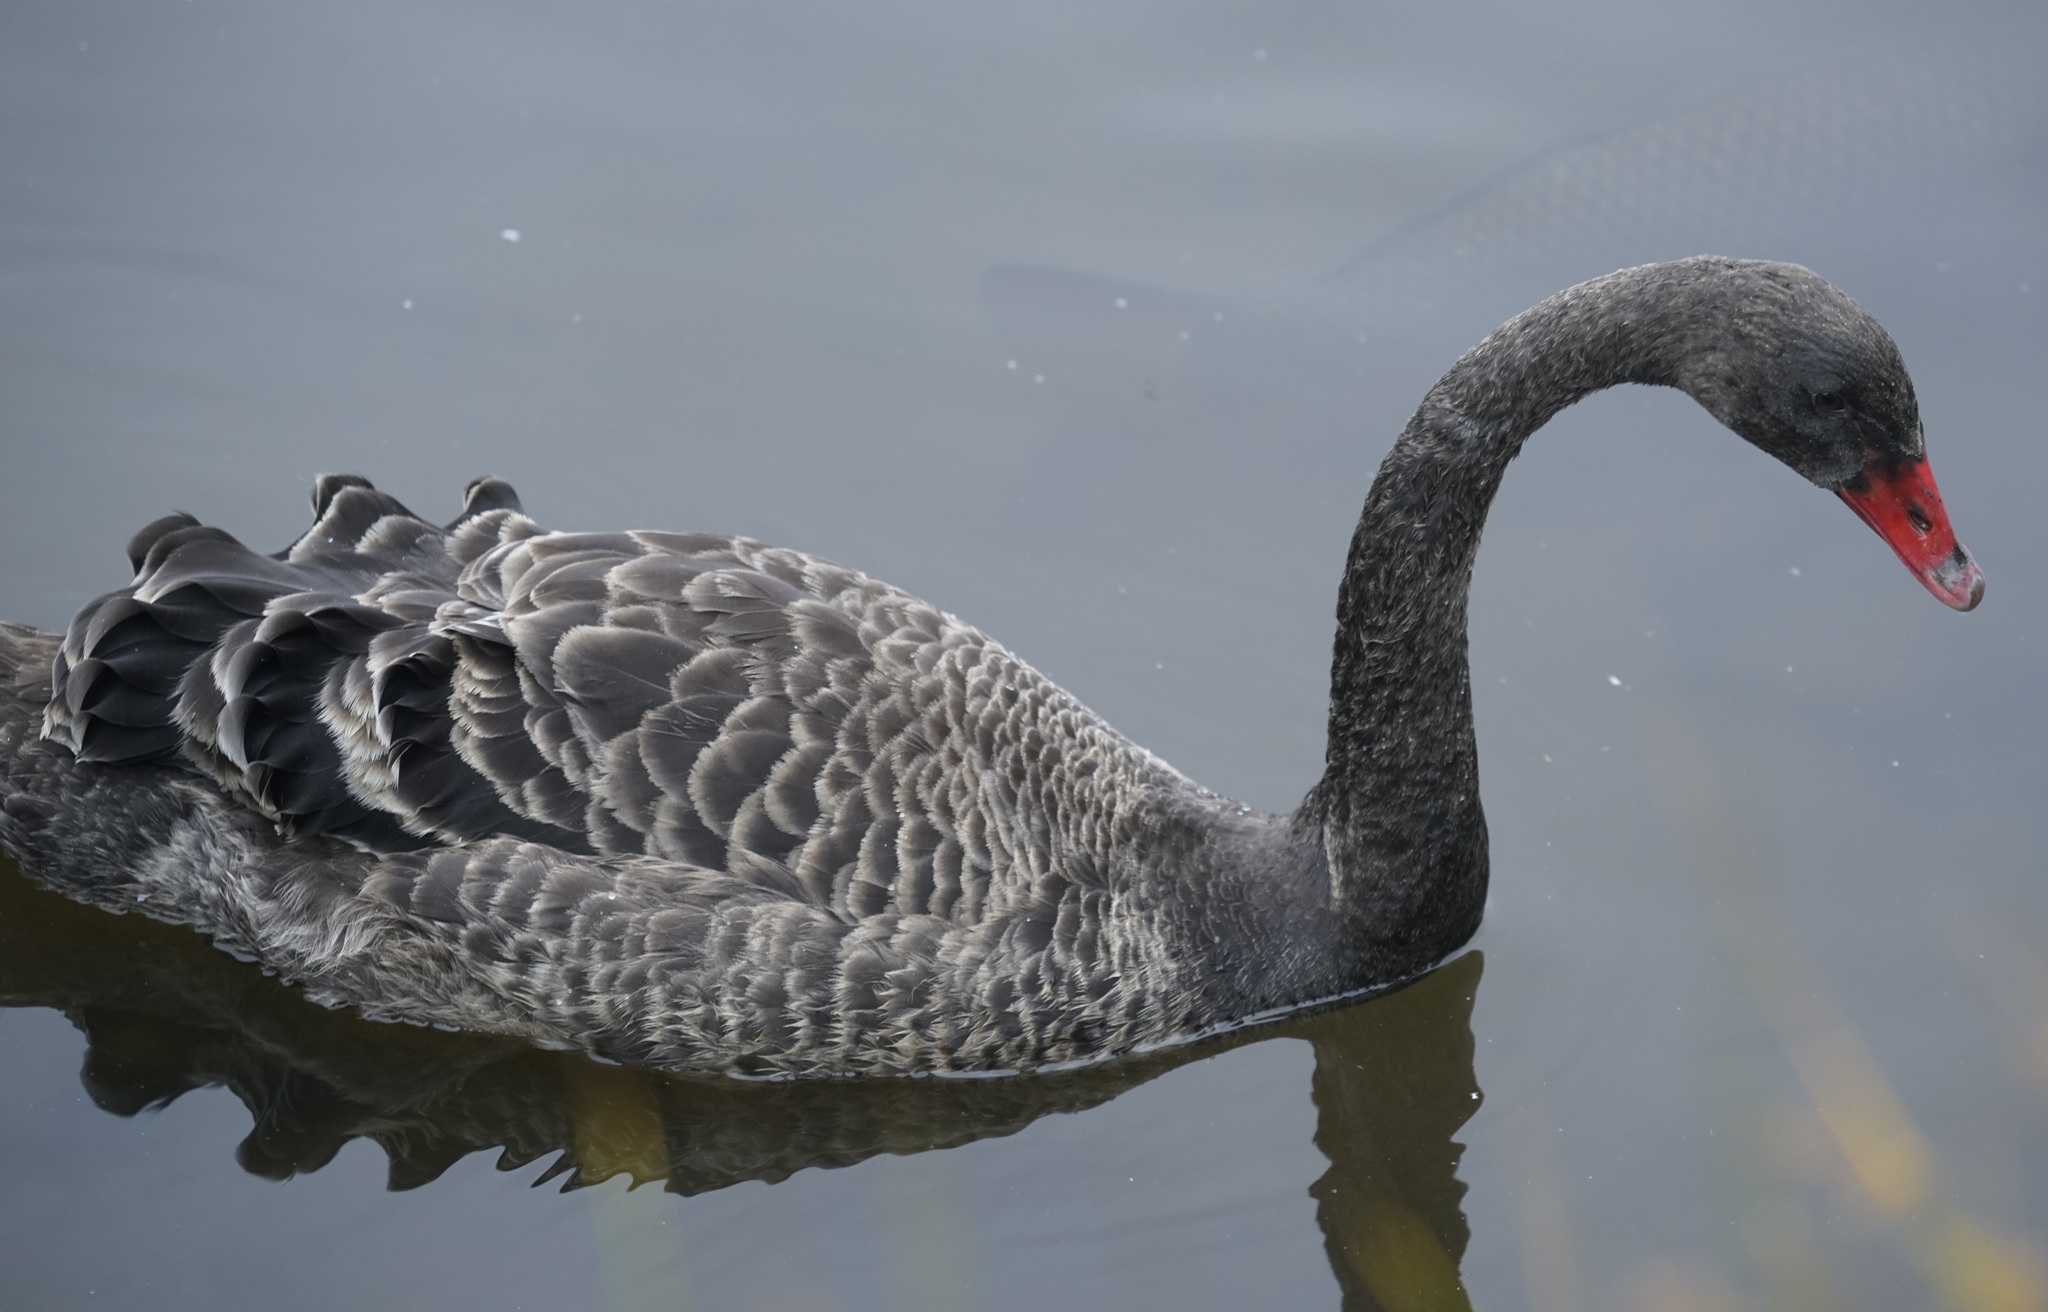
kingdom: Animalia
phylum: Chordata
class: Aves
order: Anseriformes
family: Anatidae
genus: Cygnus
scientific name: Cygnus atratus
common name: Black swan
